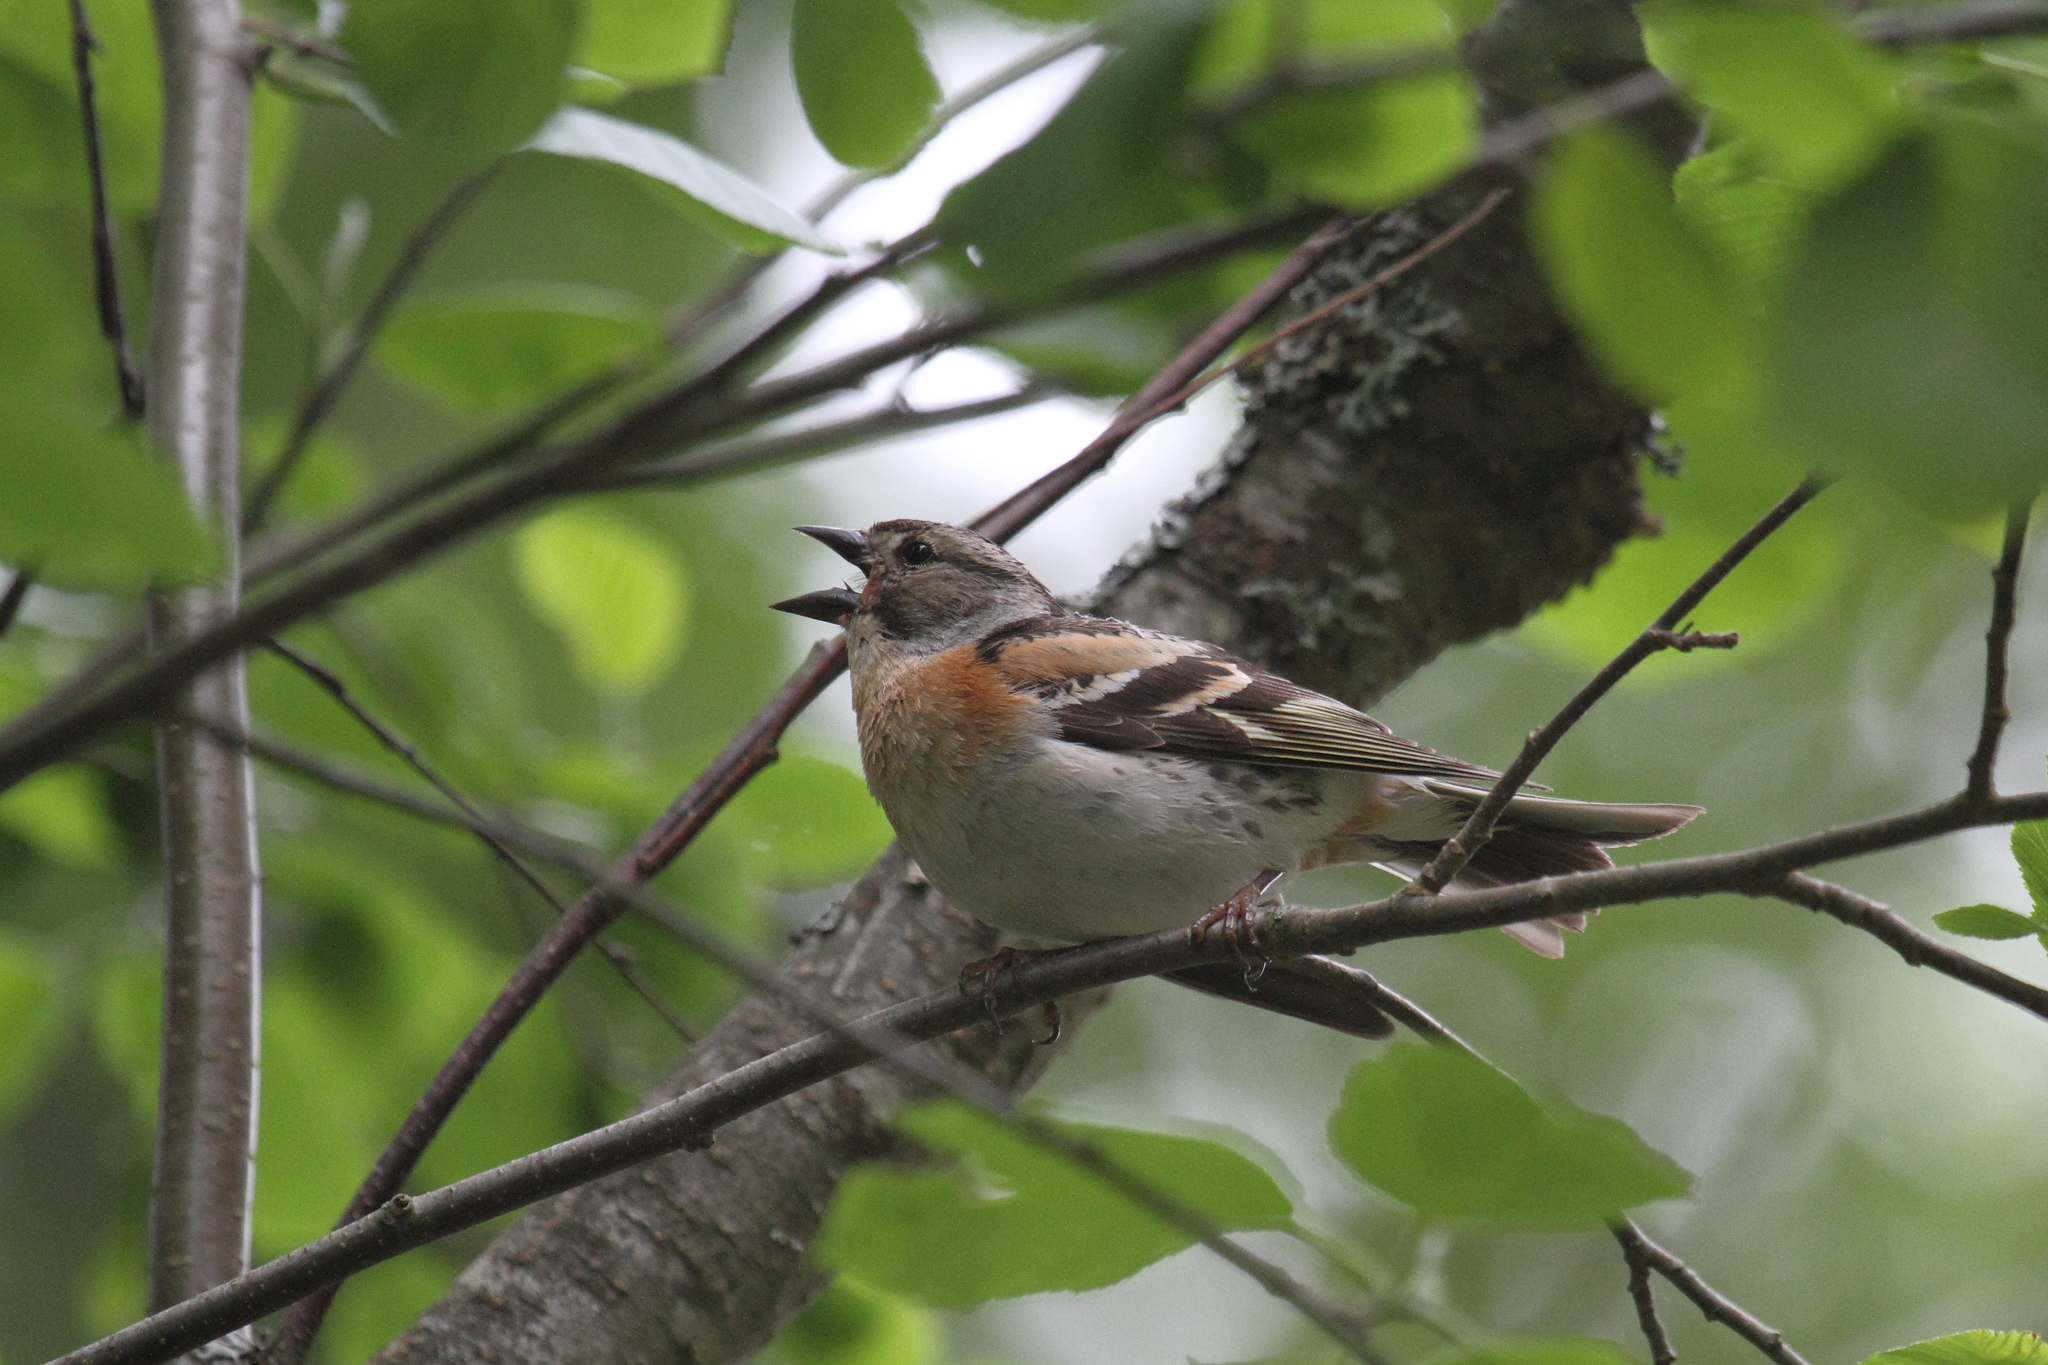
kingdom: Animalia
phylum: Chordata
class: Aves
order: Passeriformes
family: Fringillidae
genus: Fringilla
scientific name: Fringilla montifringilla
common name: Brambling
